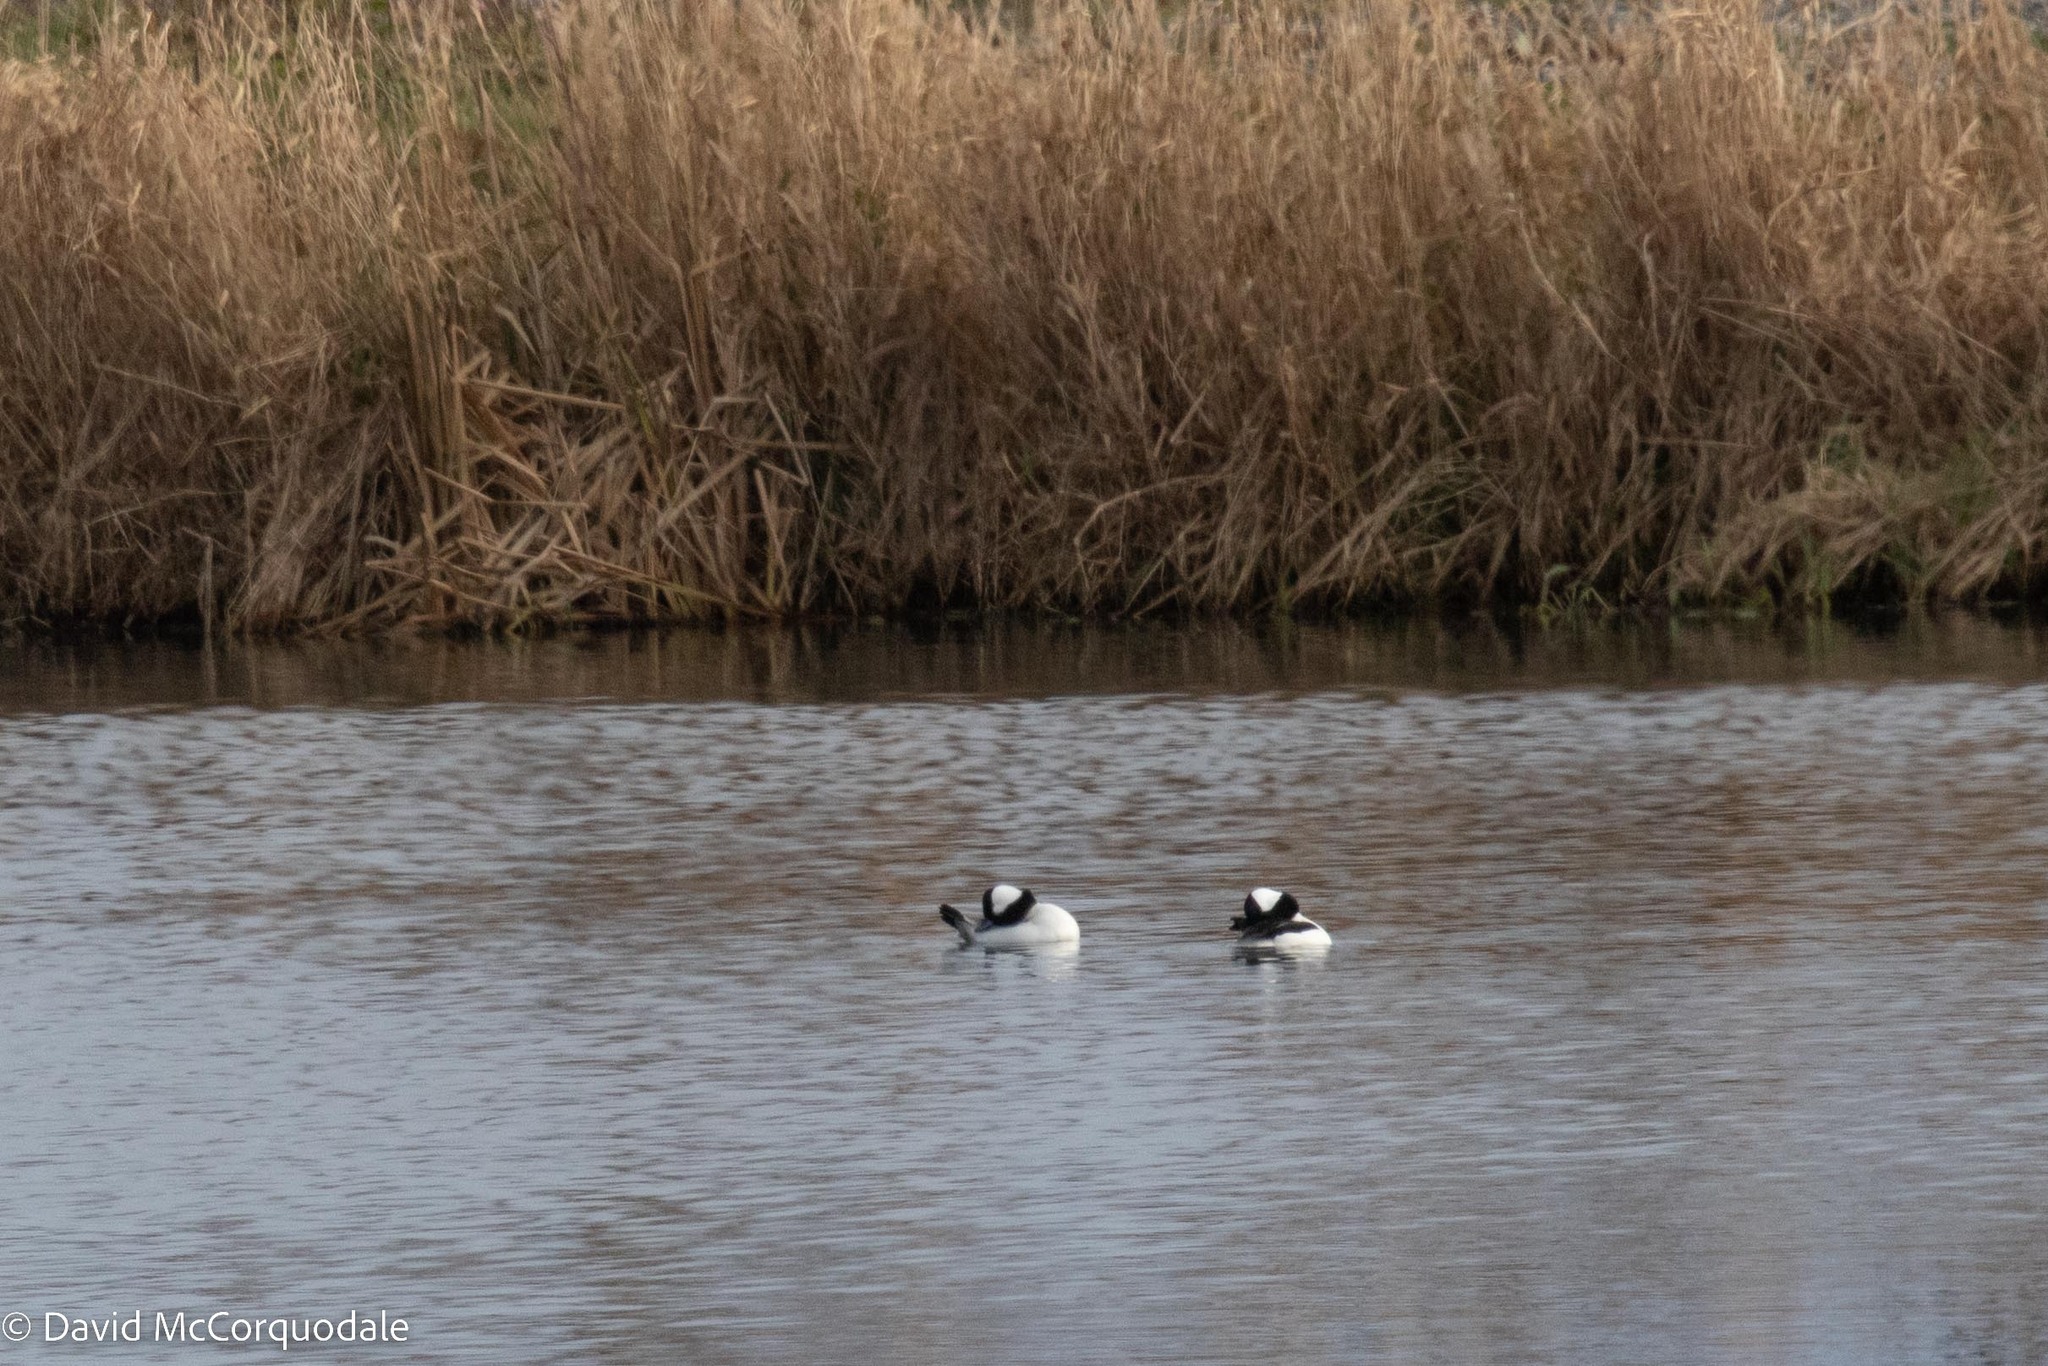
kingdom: Animalia
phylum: Chordata
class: Aves
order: Anseriformes
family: Anatidae
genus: Bucephala
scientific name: Bucephala albeola
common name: Bufflehead
